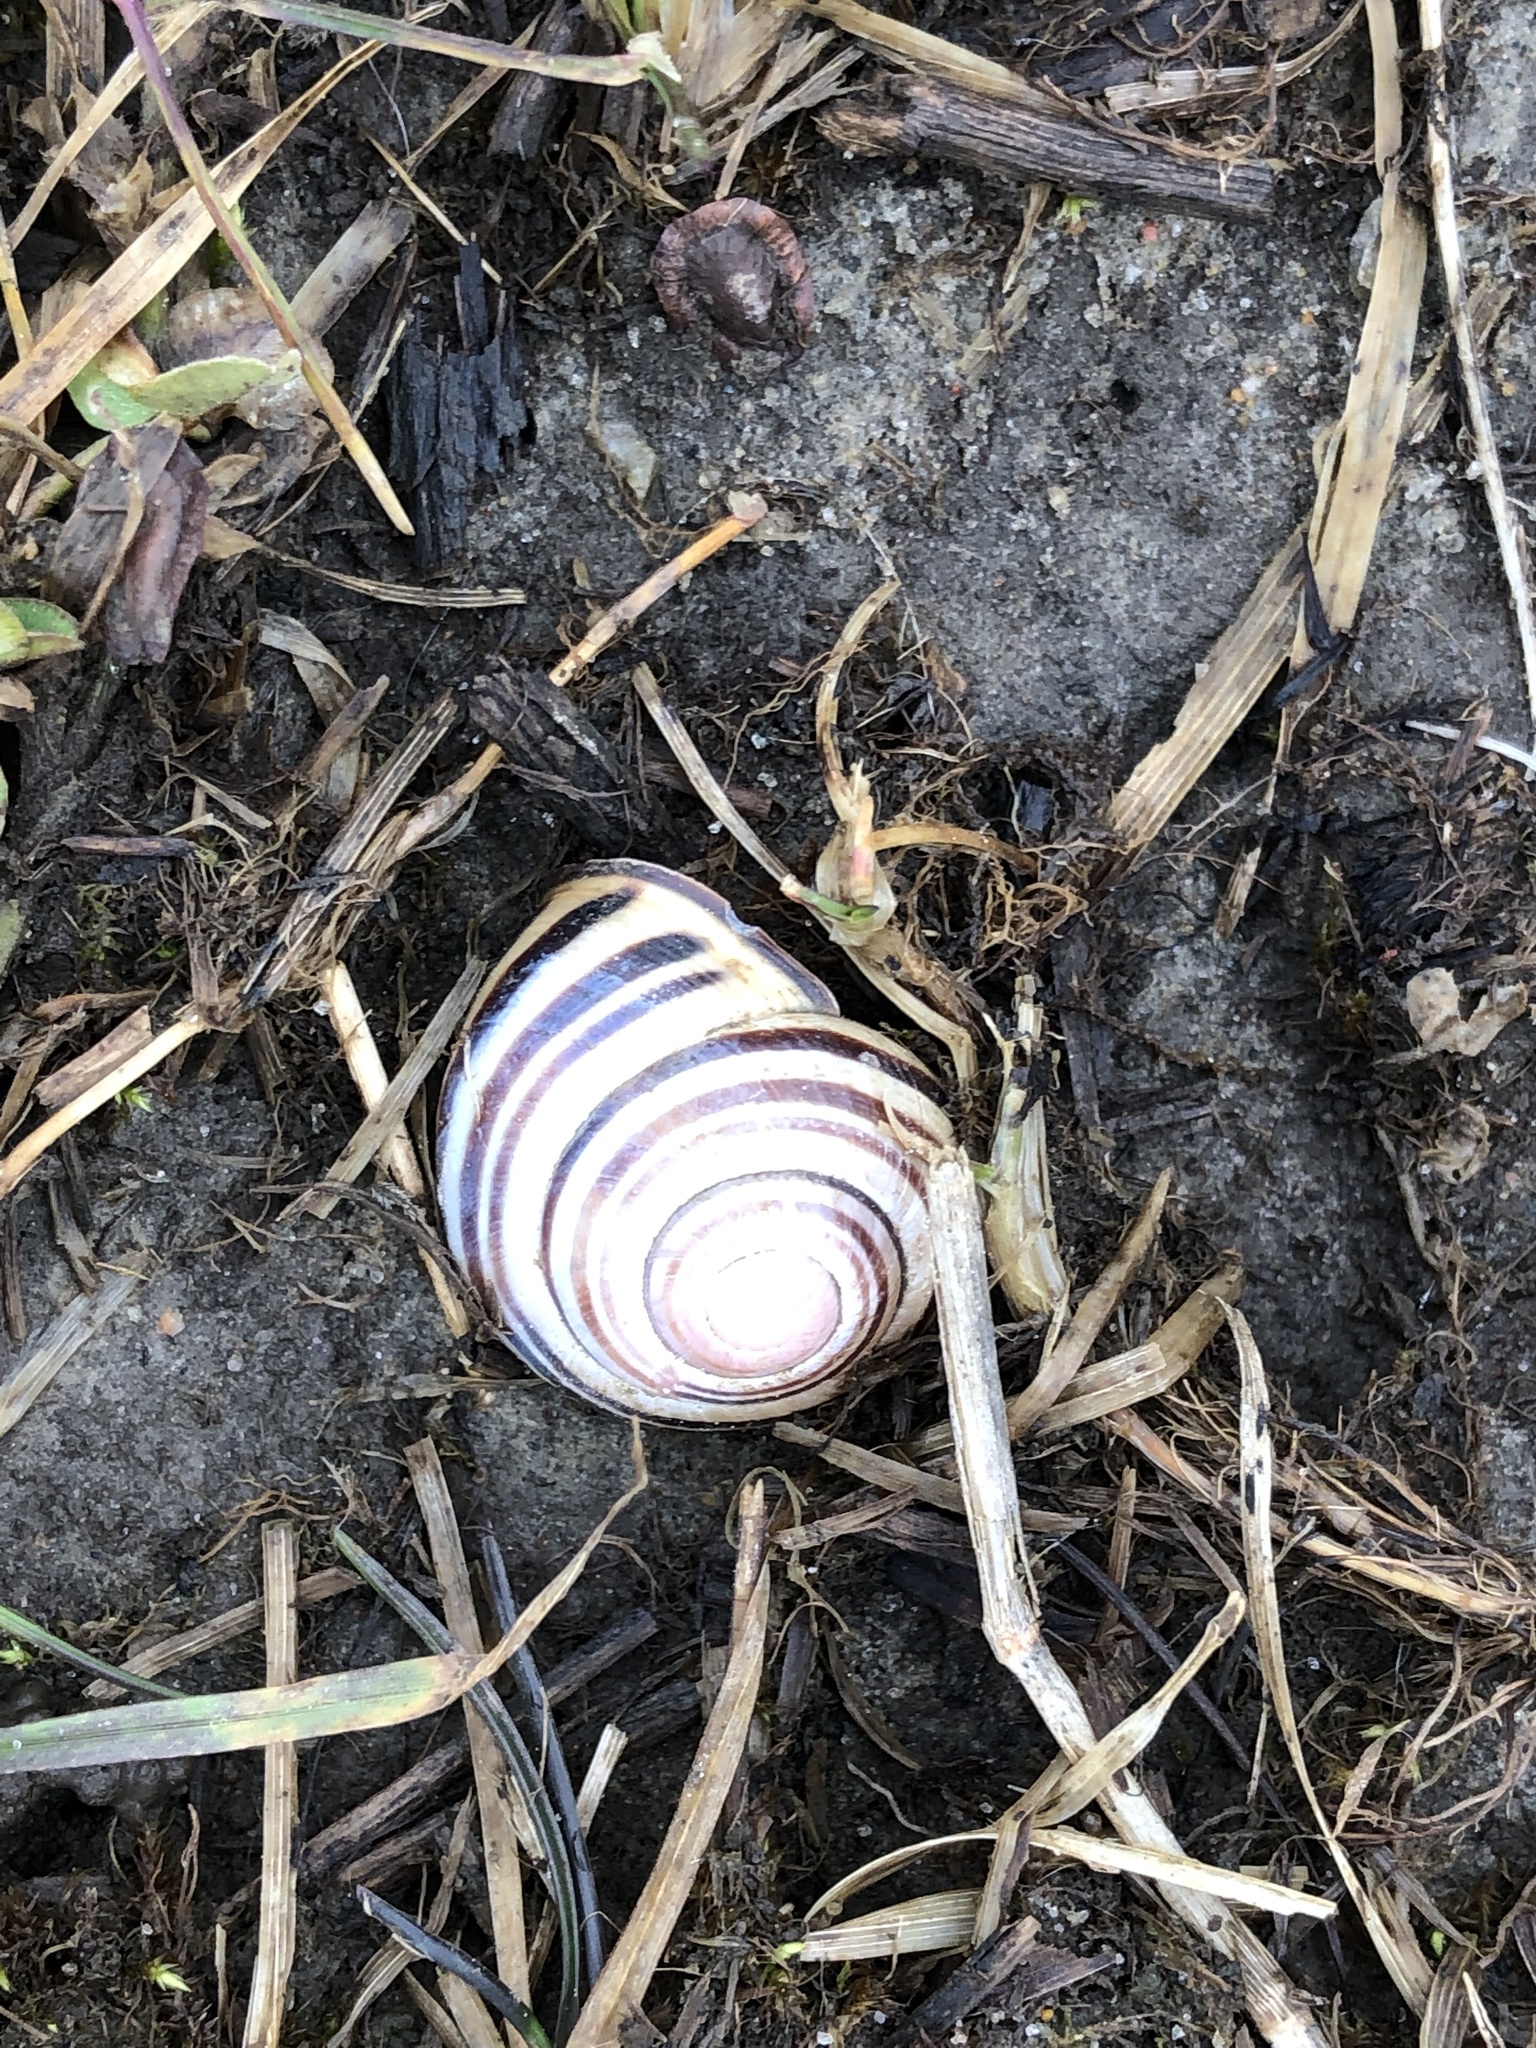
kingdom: Animalia
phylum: Mollusca
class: Gastropoda
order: Stylommatophora
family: Helicidae
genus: Cepaea
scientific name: Cepaea nemoralis
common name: Grovesnail
